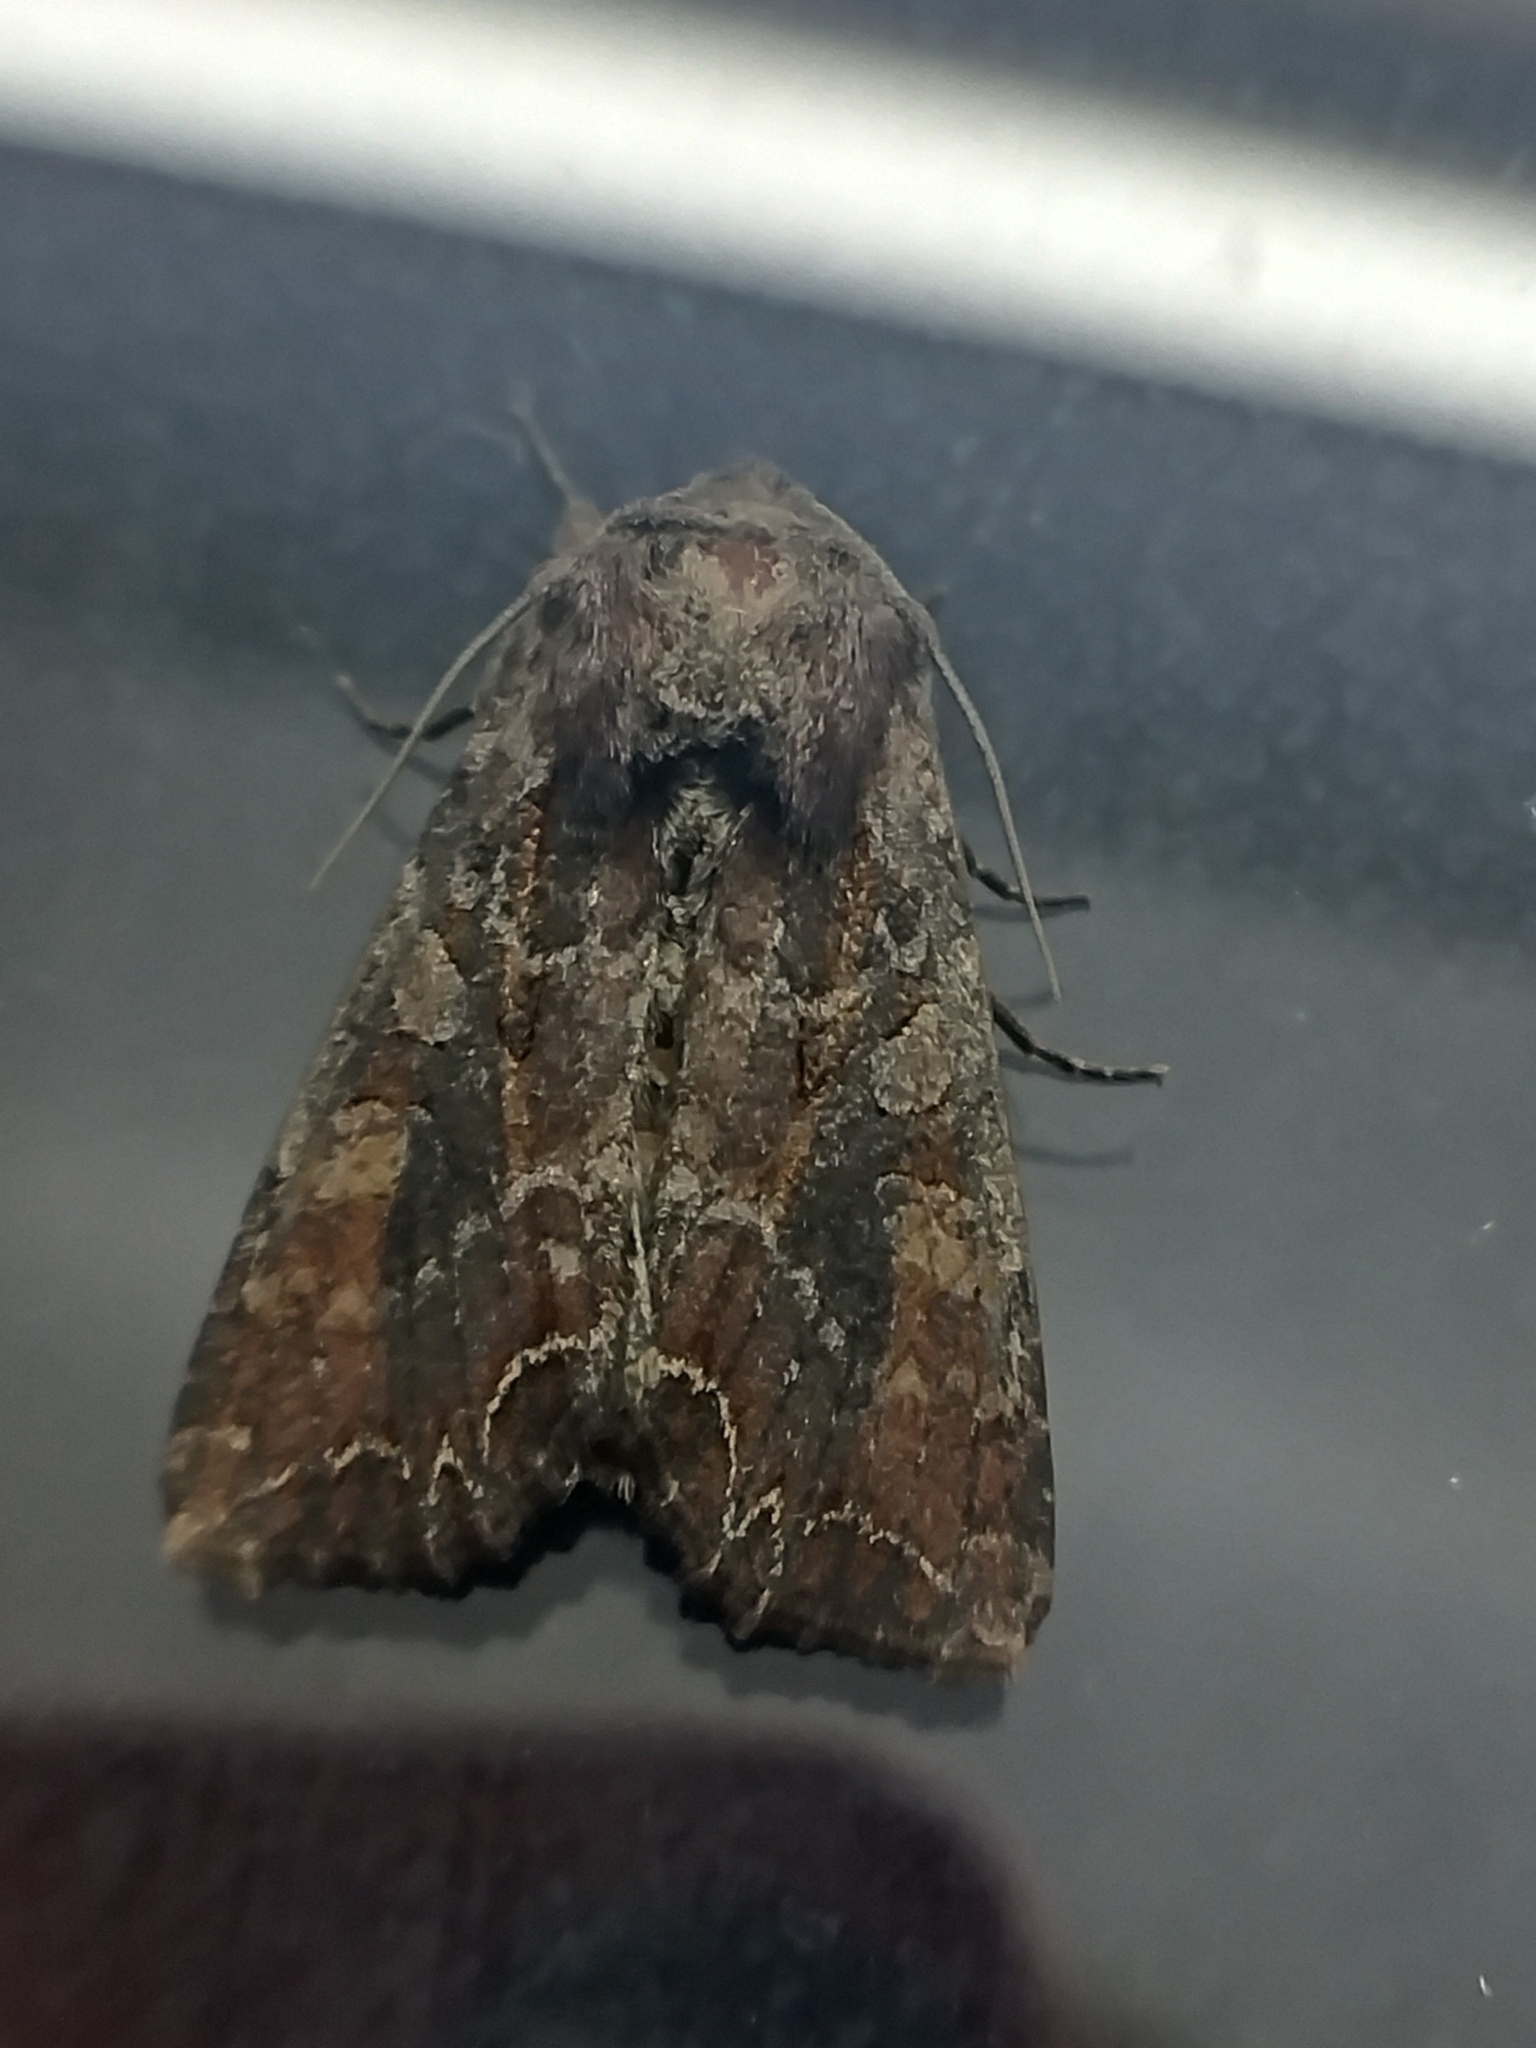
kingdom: Animalia
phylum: Arthropoda
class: Insecta
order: Lepidoptera
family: Noctuidae
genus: Lacanobia
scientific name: Lacanobia suasa
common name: Dog's tooth
